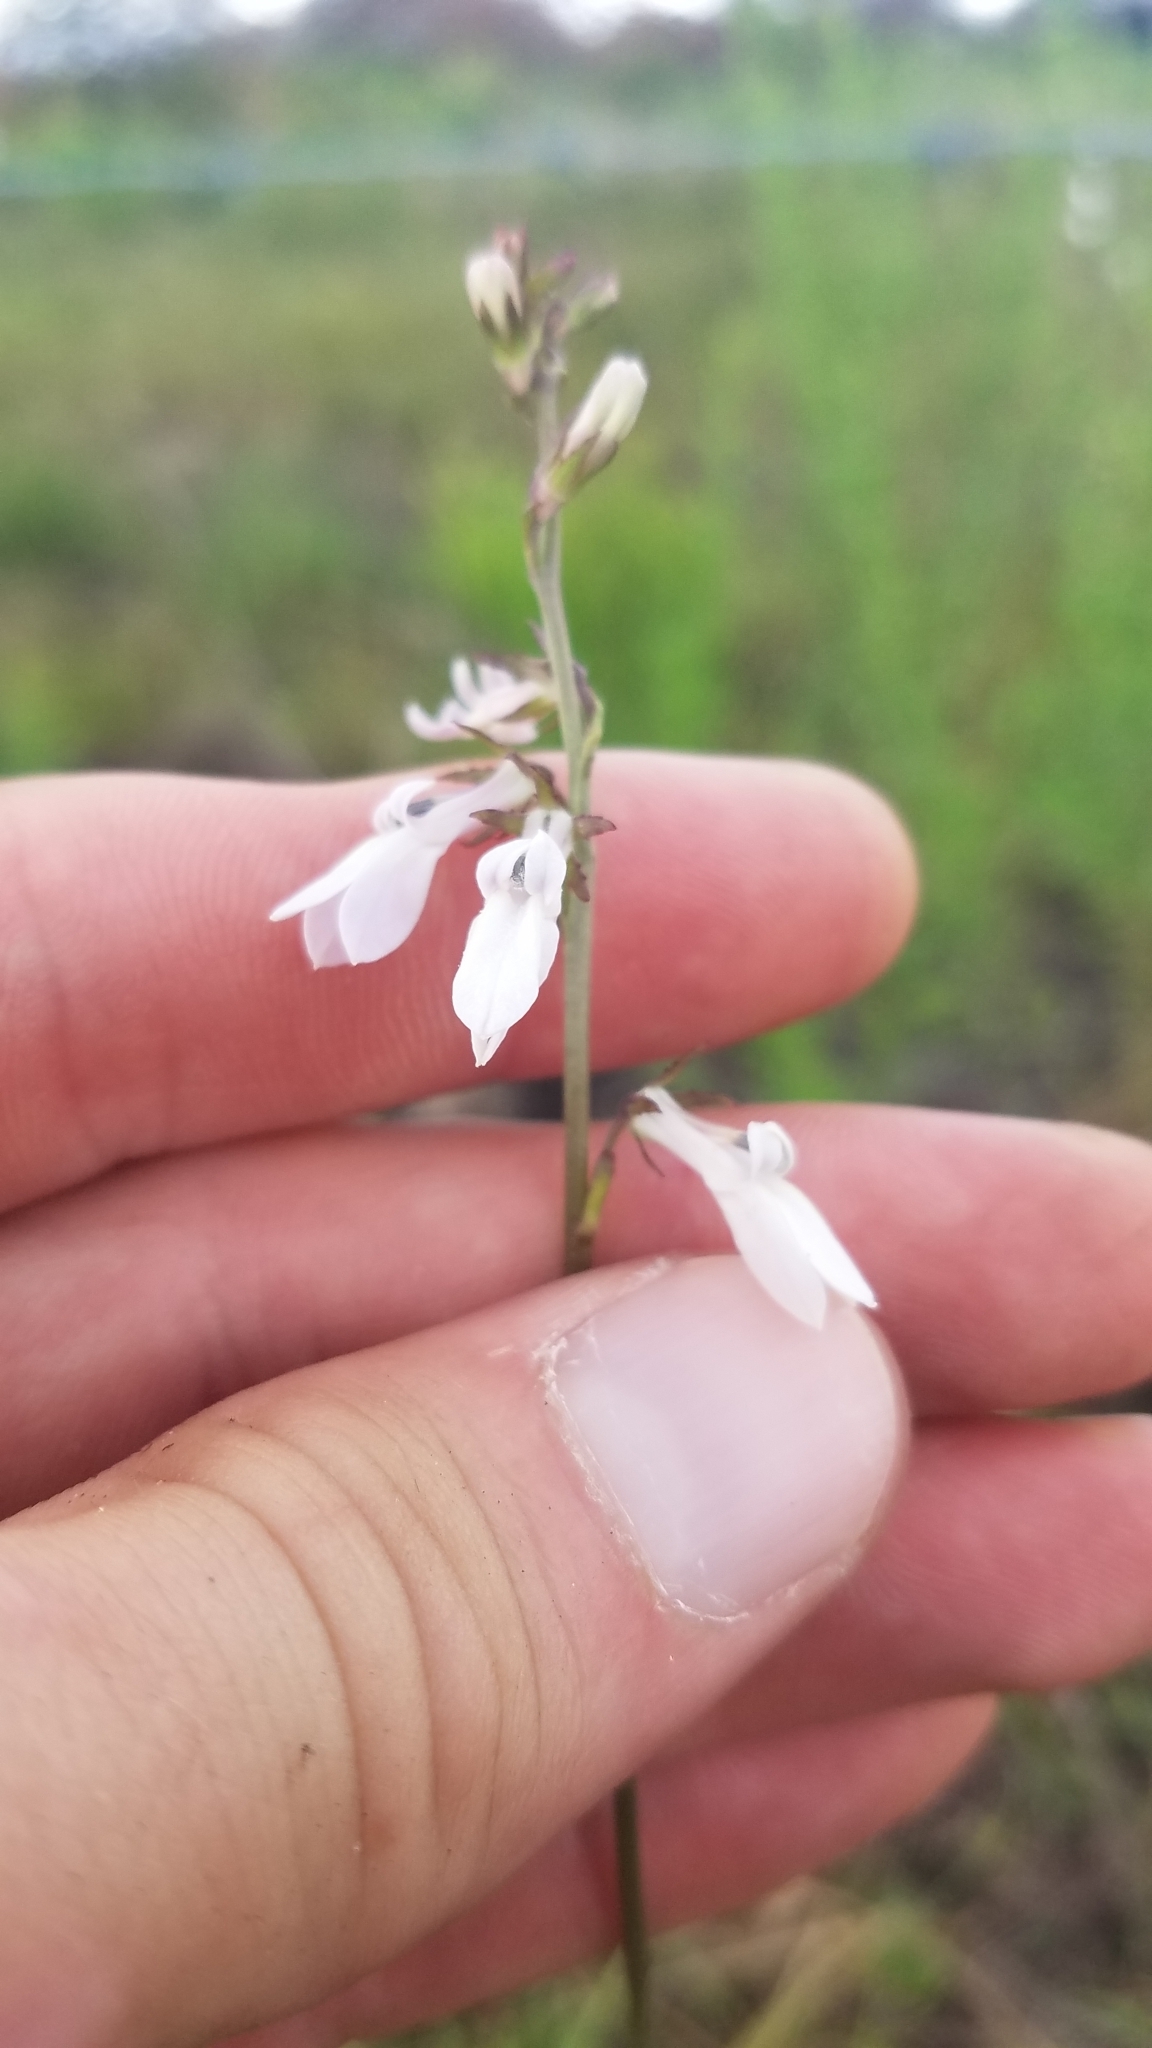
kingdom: Plantae
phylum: Tracheophyta
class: Magnoliopsida
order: Asterales
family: Campanulaceae
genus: Lobelia
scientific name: Lobelia paludosa
